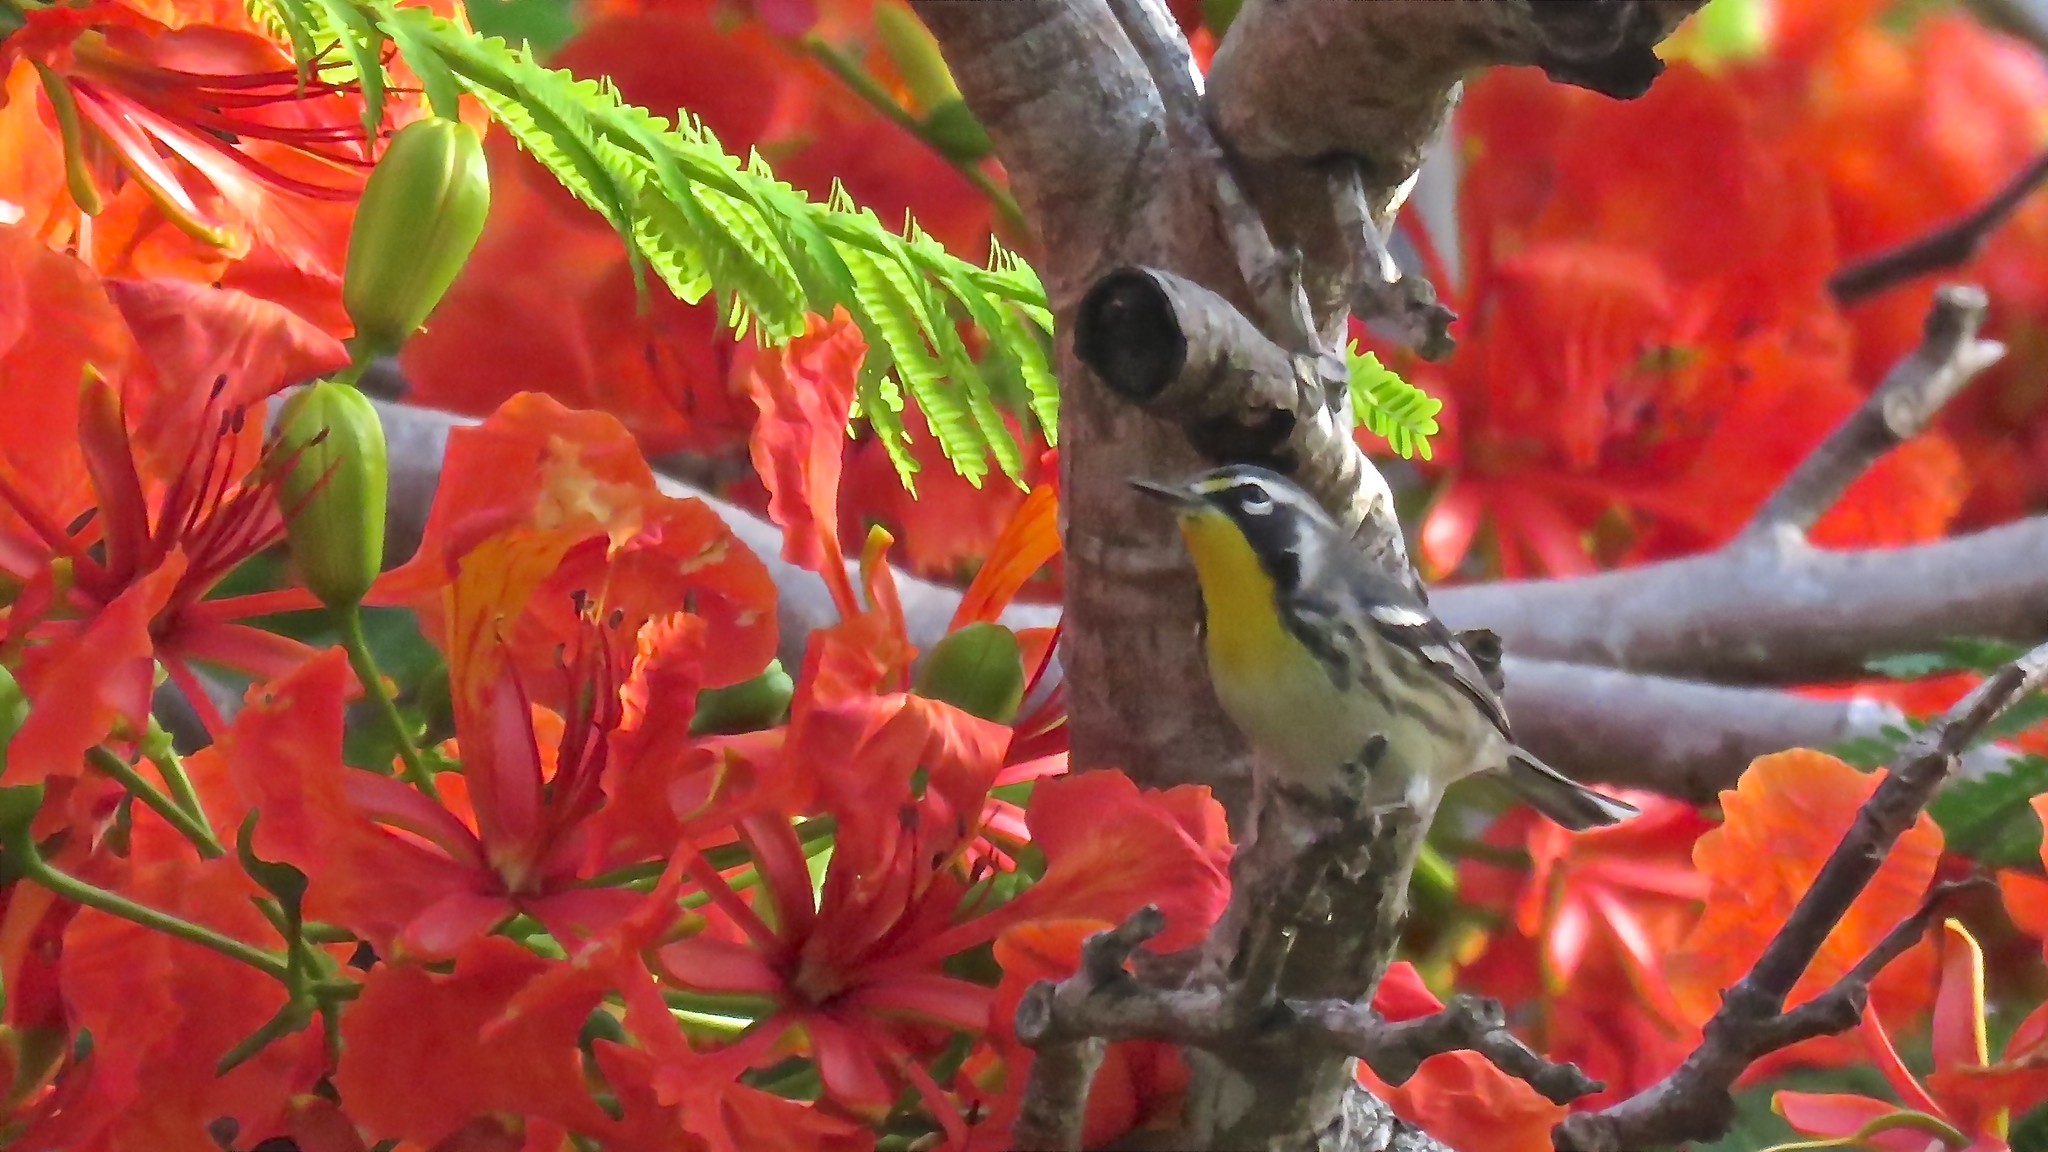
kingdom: Animalia
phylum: Chordata
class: Aves
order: Passeriformes
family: Parulidae
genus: Setophaga
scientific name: Setophaga dominica
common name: Yellow-throated warbler
